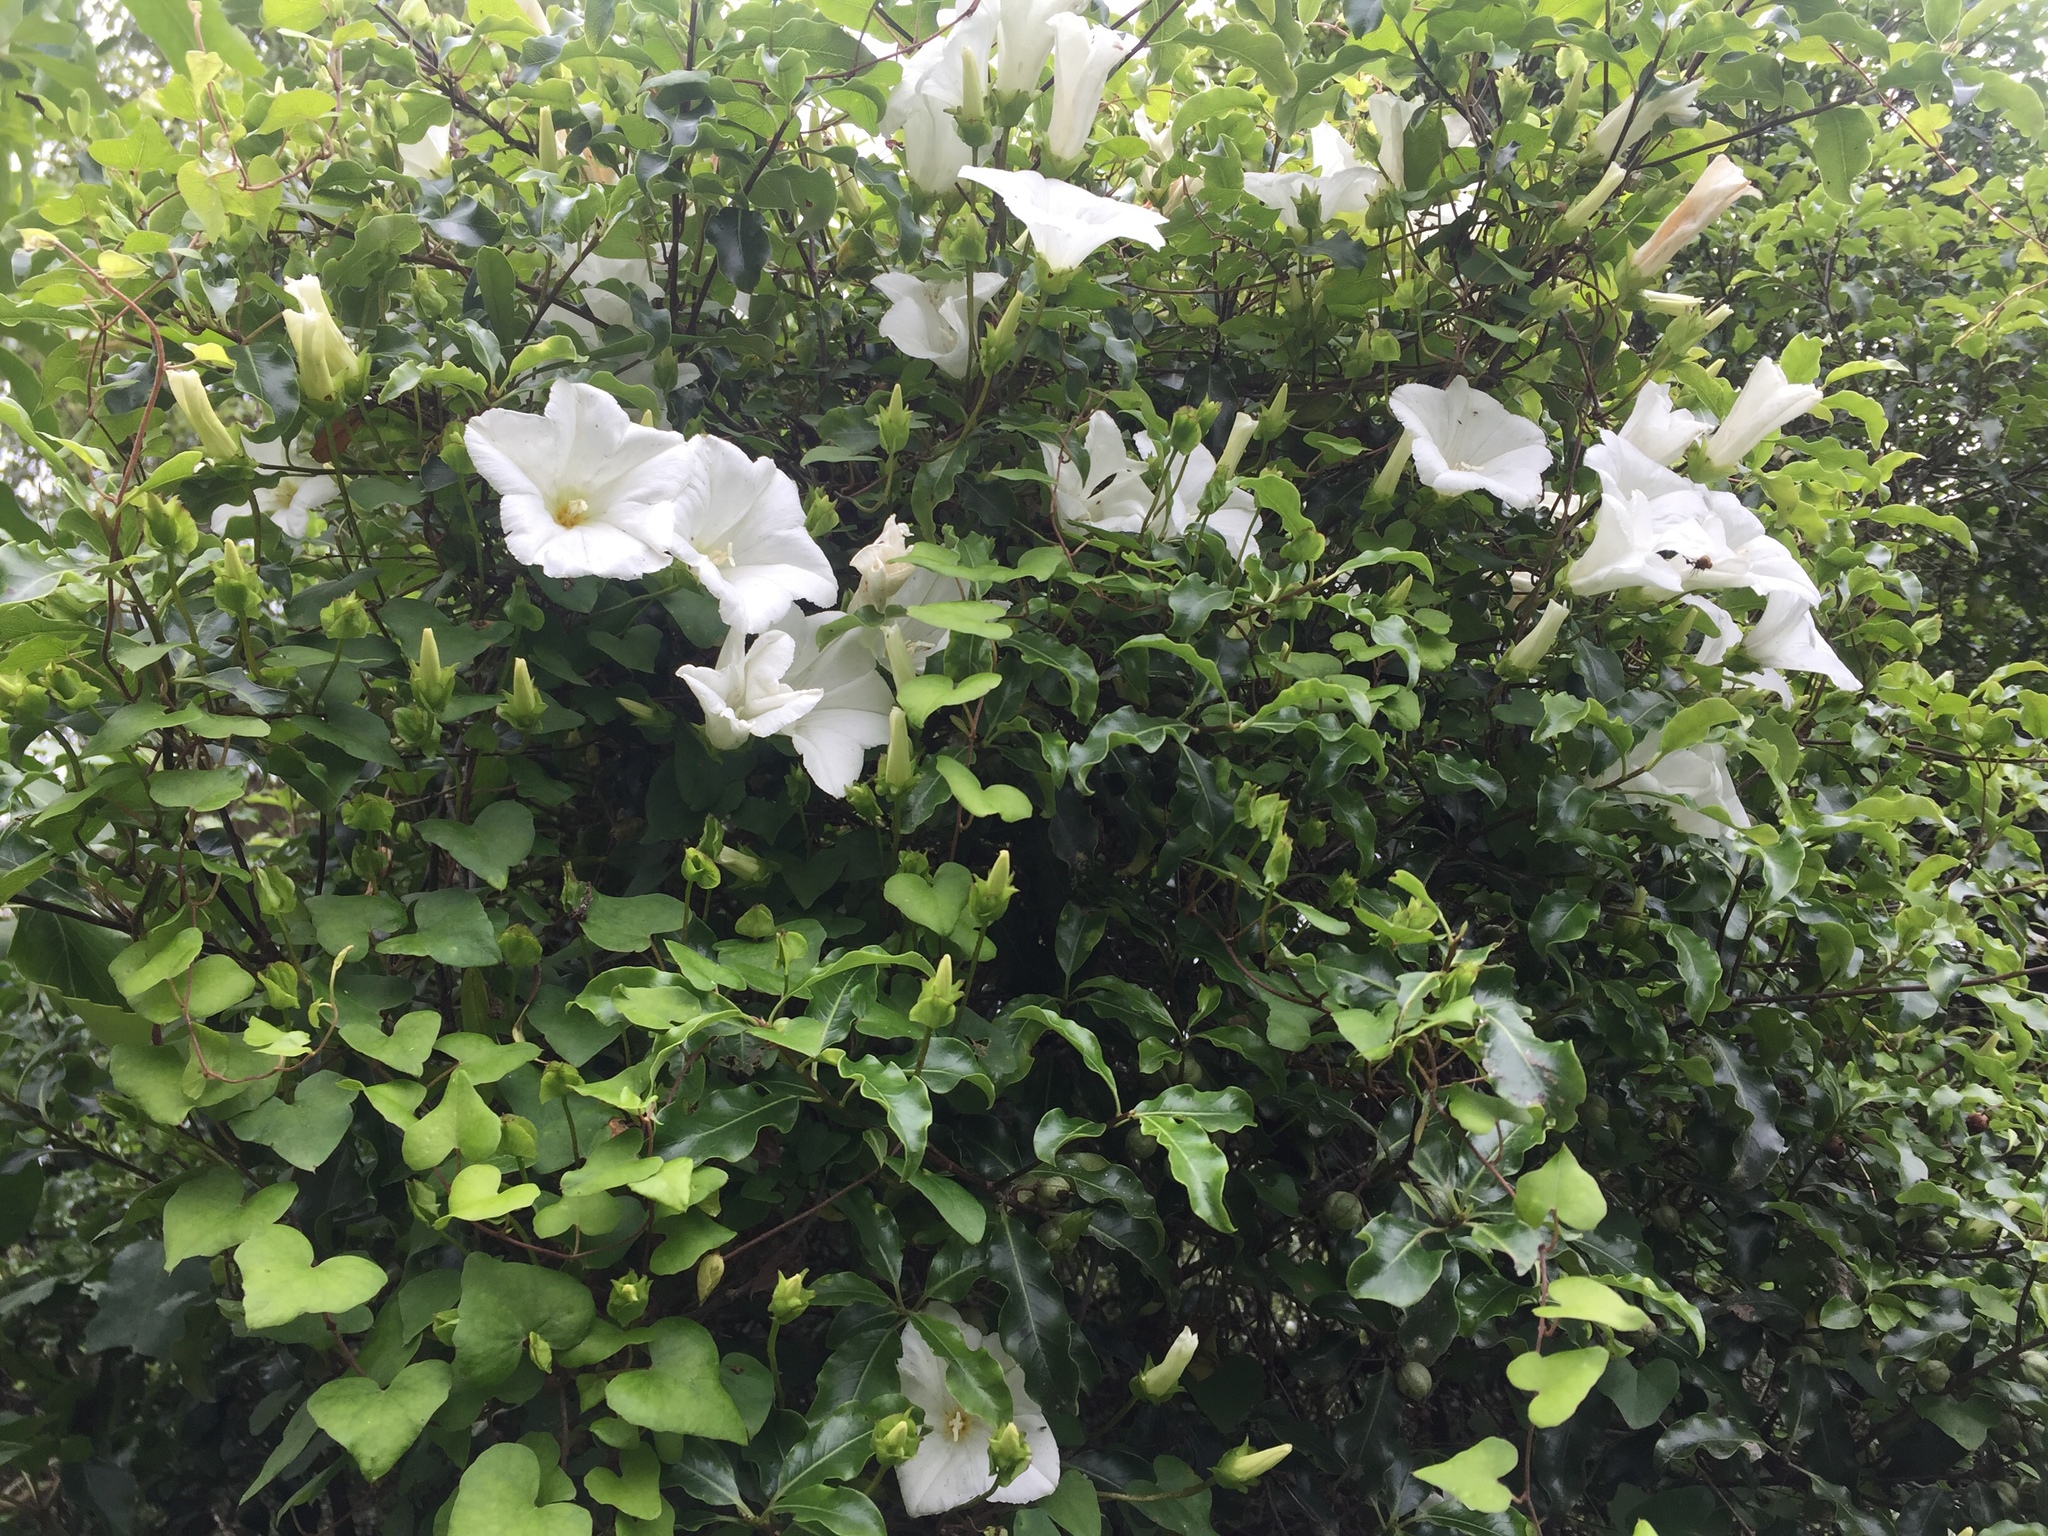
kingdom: Plantae
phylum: Tracheophyta
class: Magnoliopsida
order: Solanales
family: Convolvulaceae
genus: Calystegia
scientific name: Calystegia tuguriorum
